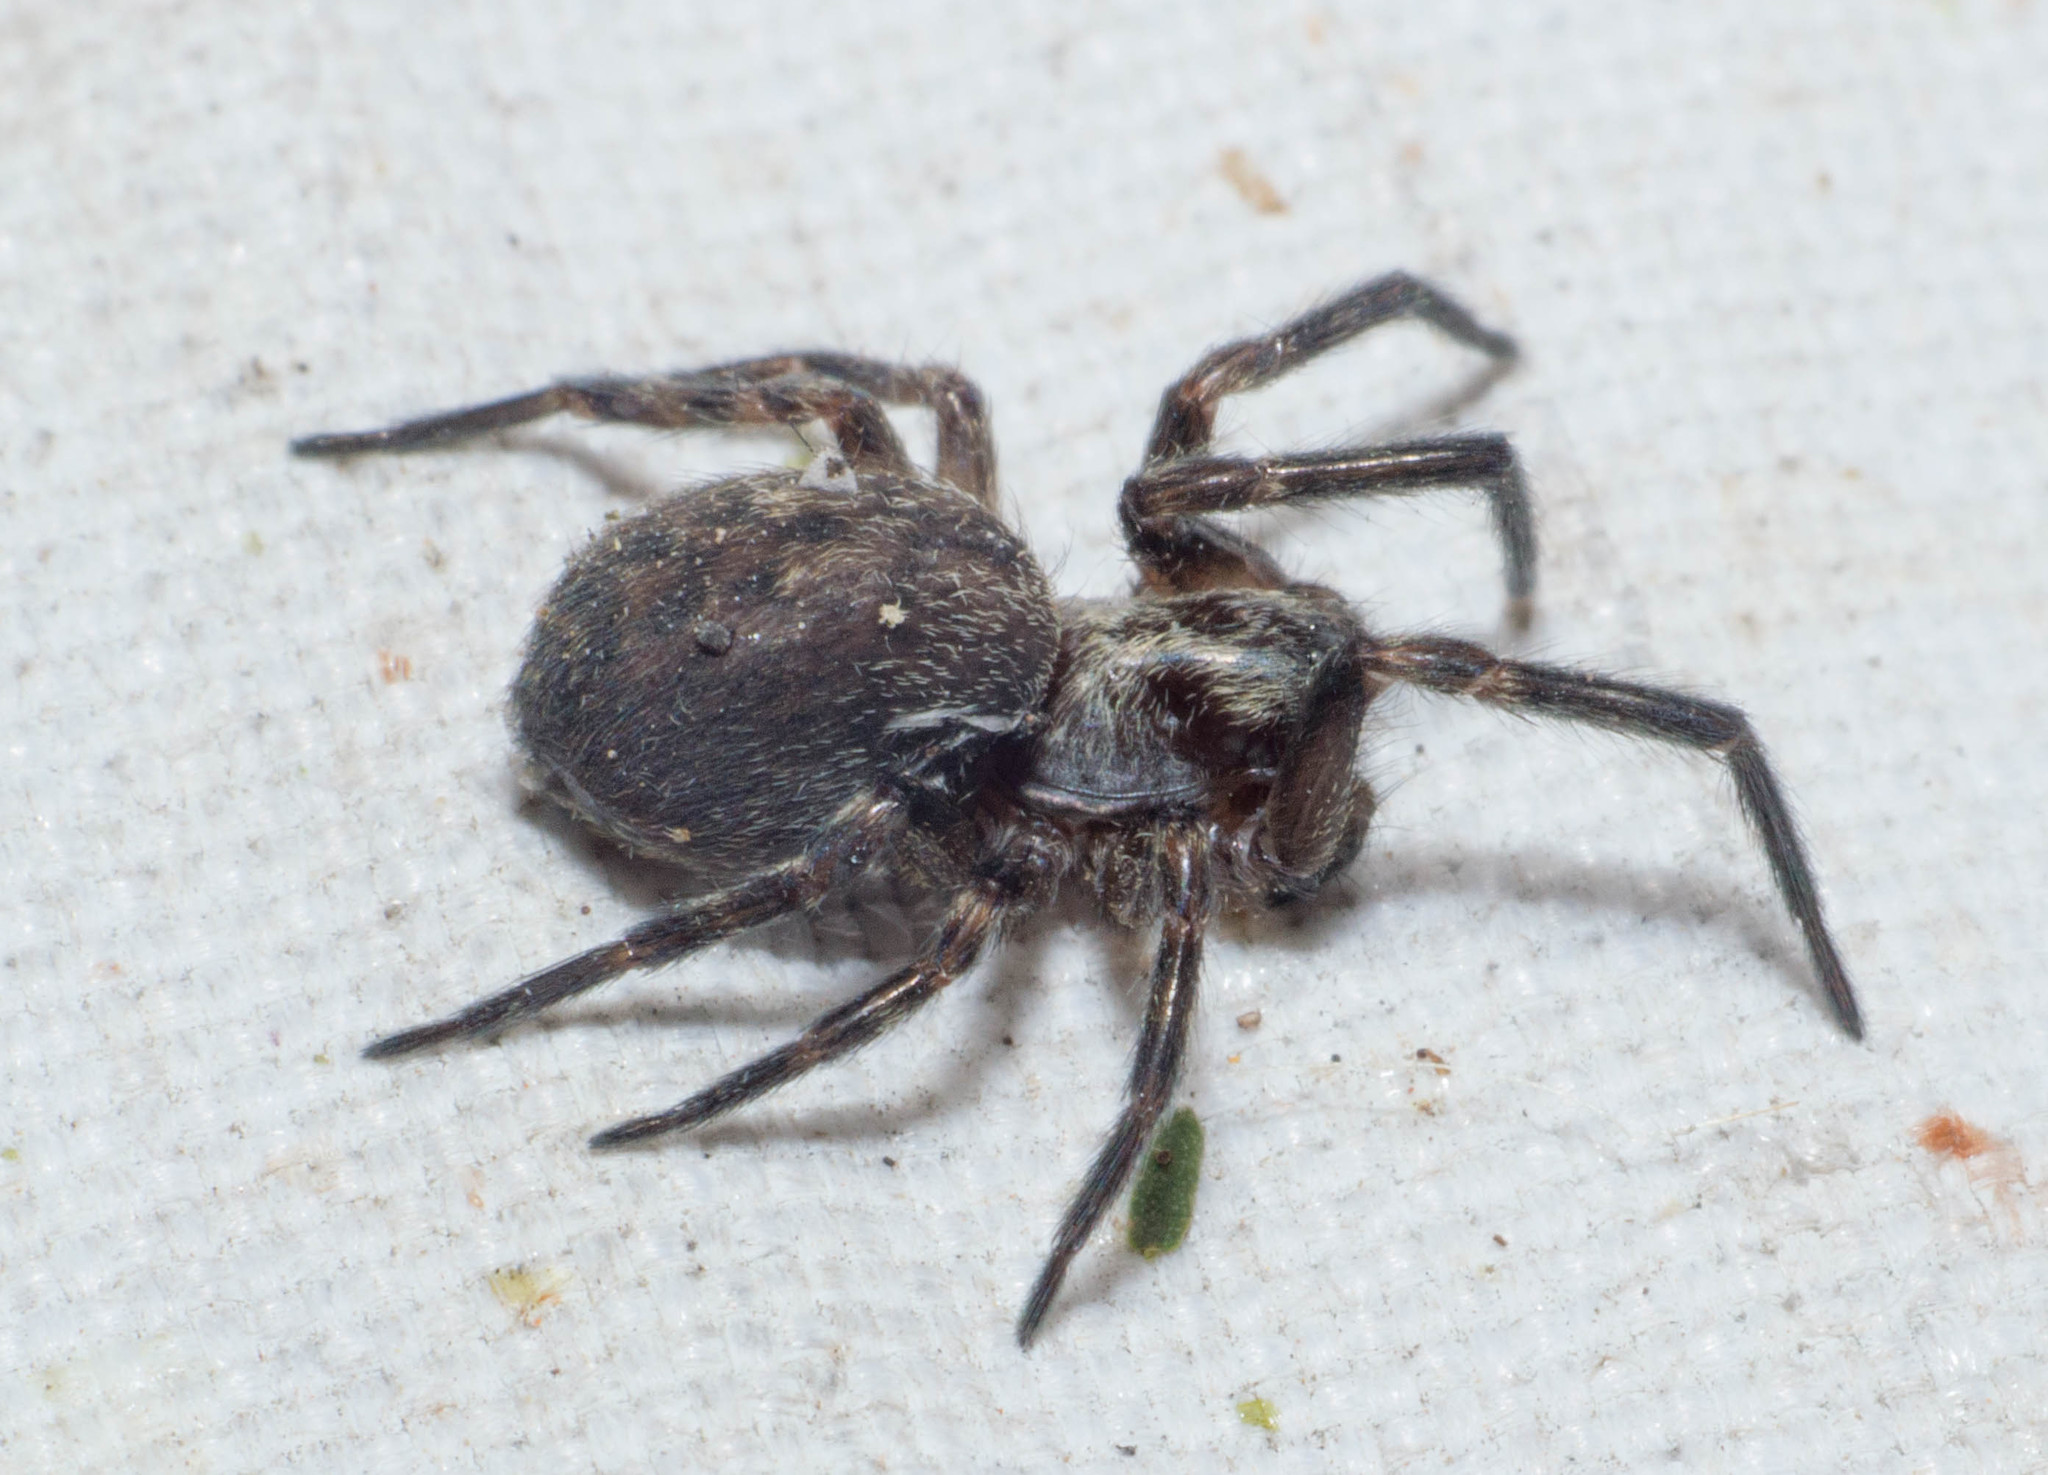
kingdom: Animalia
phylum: Arthropoda
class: Arachnida
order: Araneae
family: Desidae
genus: Badumna
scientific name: Badumna longinqua
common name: Gray house spider
